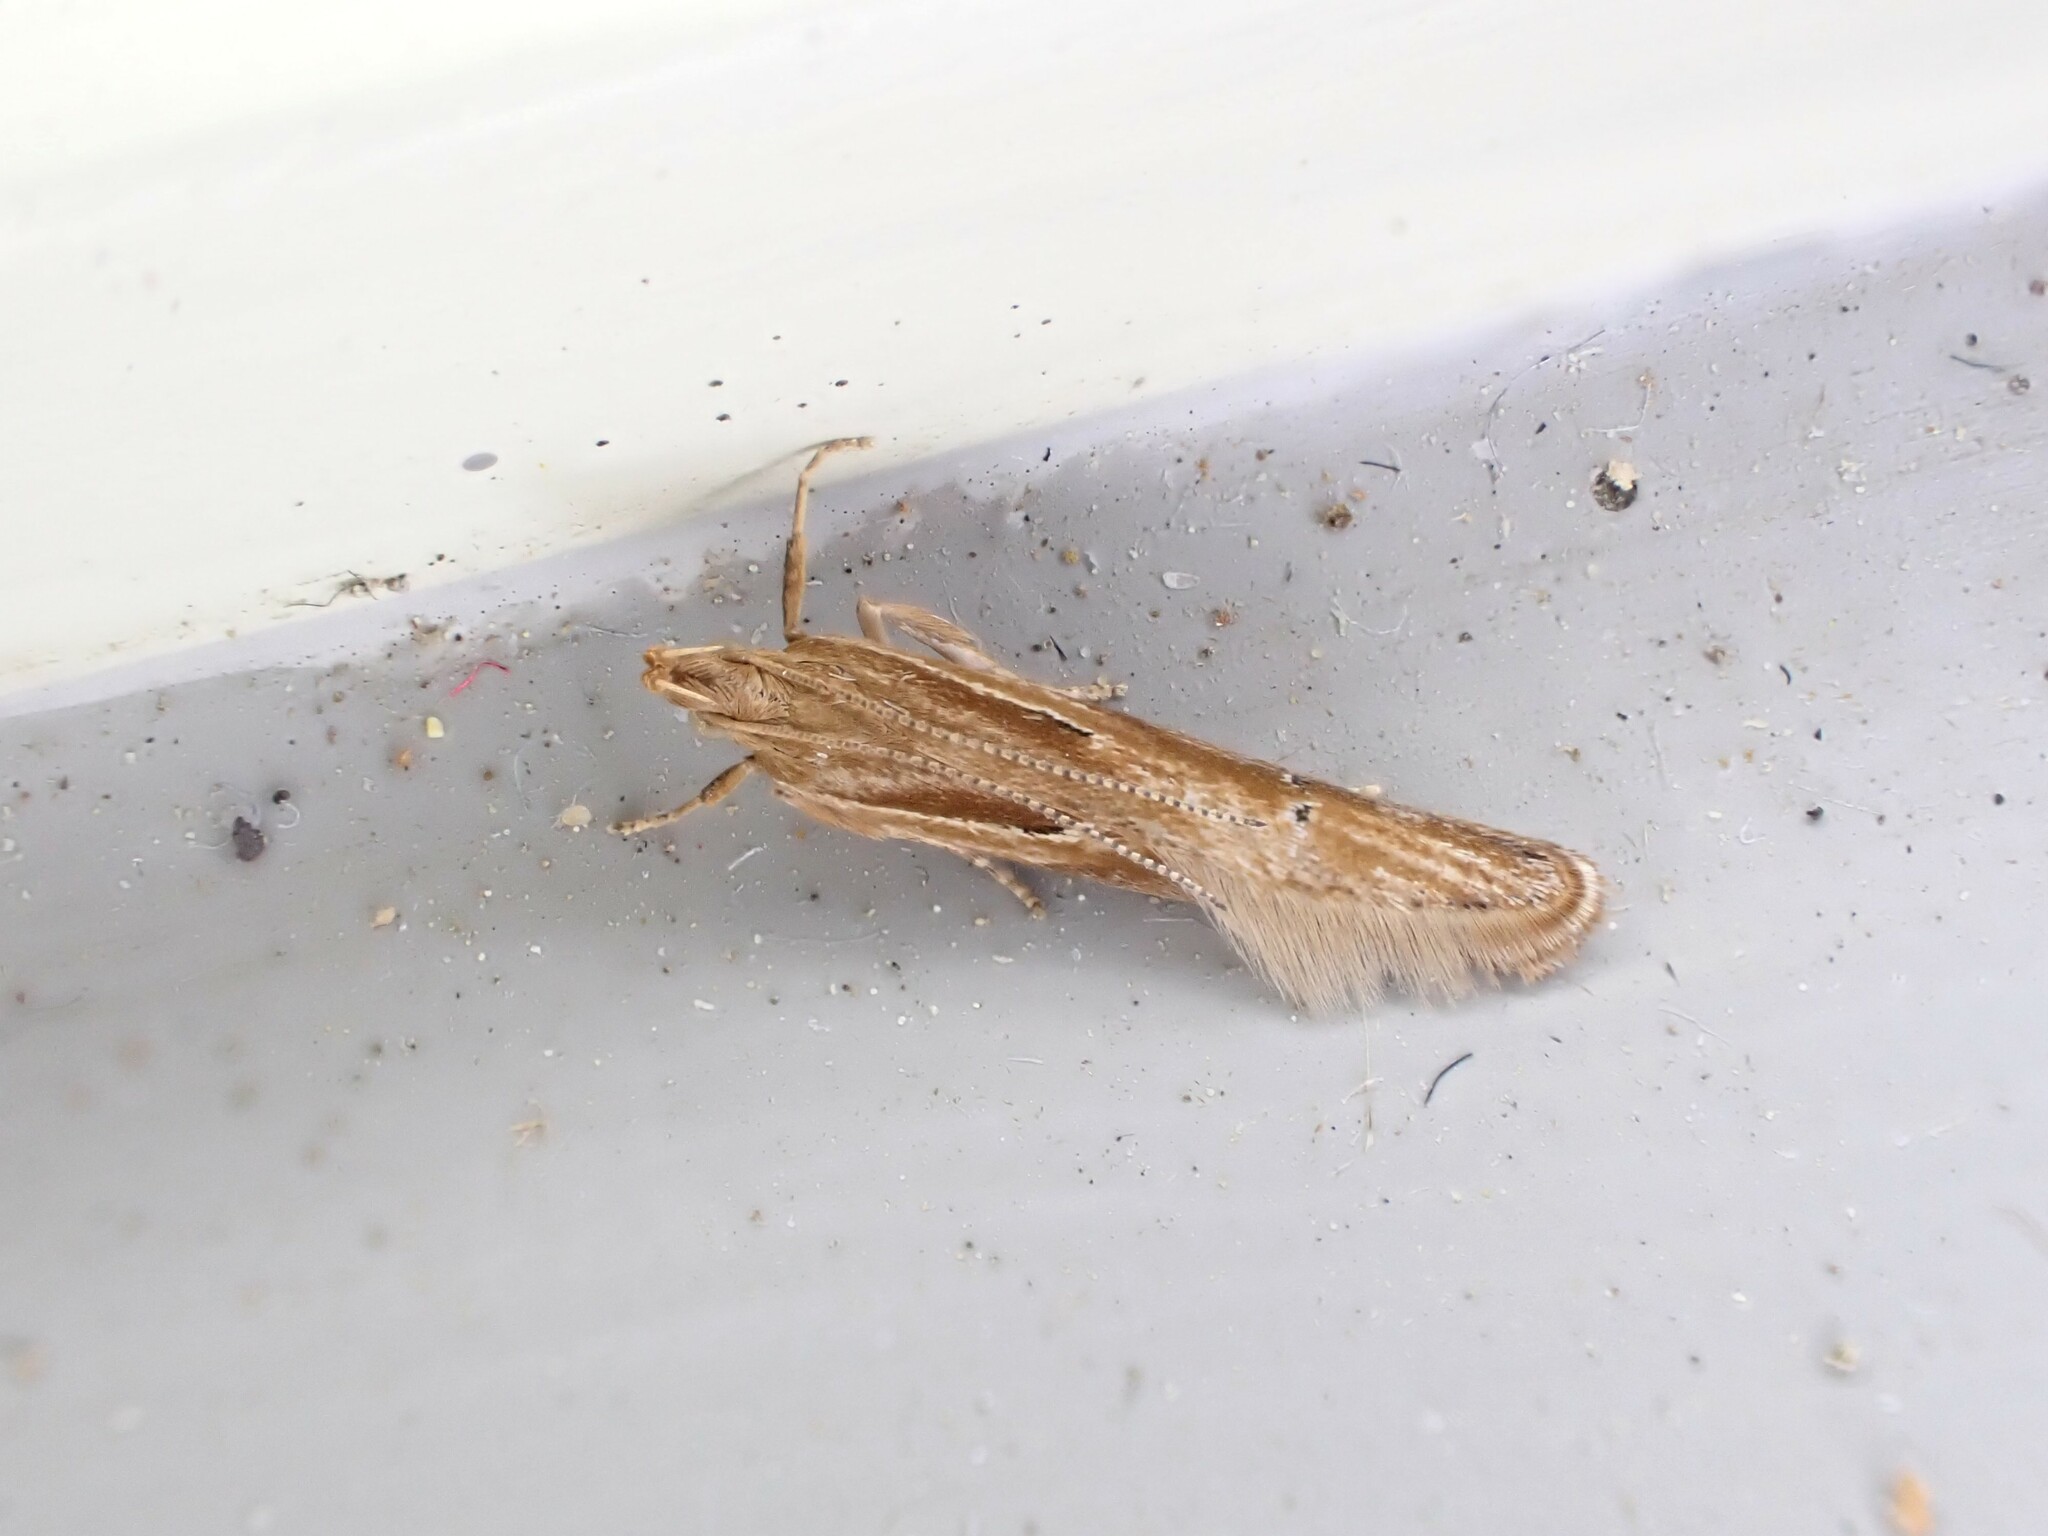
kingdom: Animalia
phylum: Arthropoda
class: Insecta
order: Lepidoptera
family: Depressariidae
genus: Eutorna
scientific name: Eutorna symmorpha
